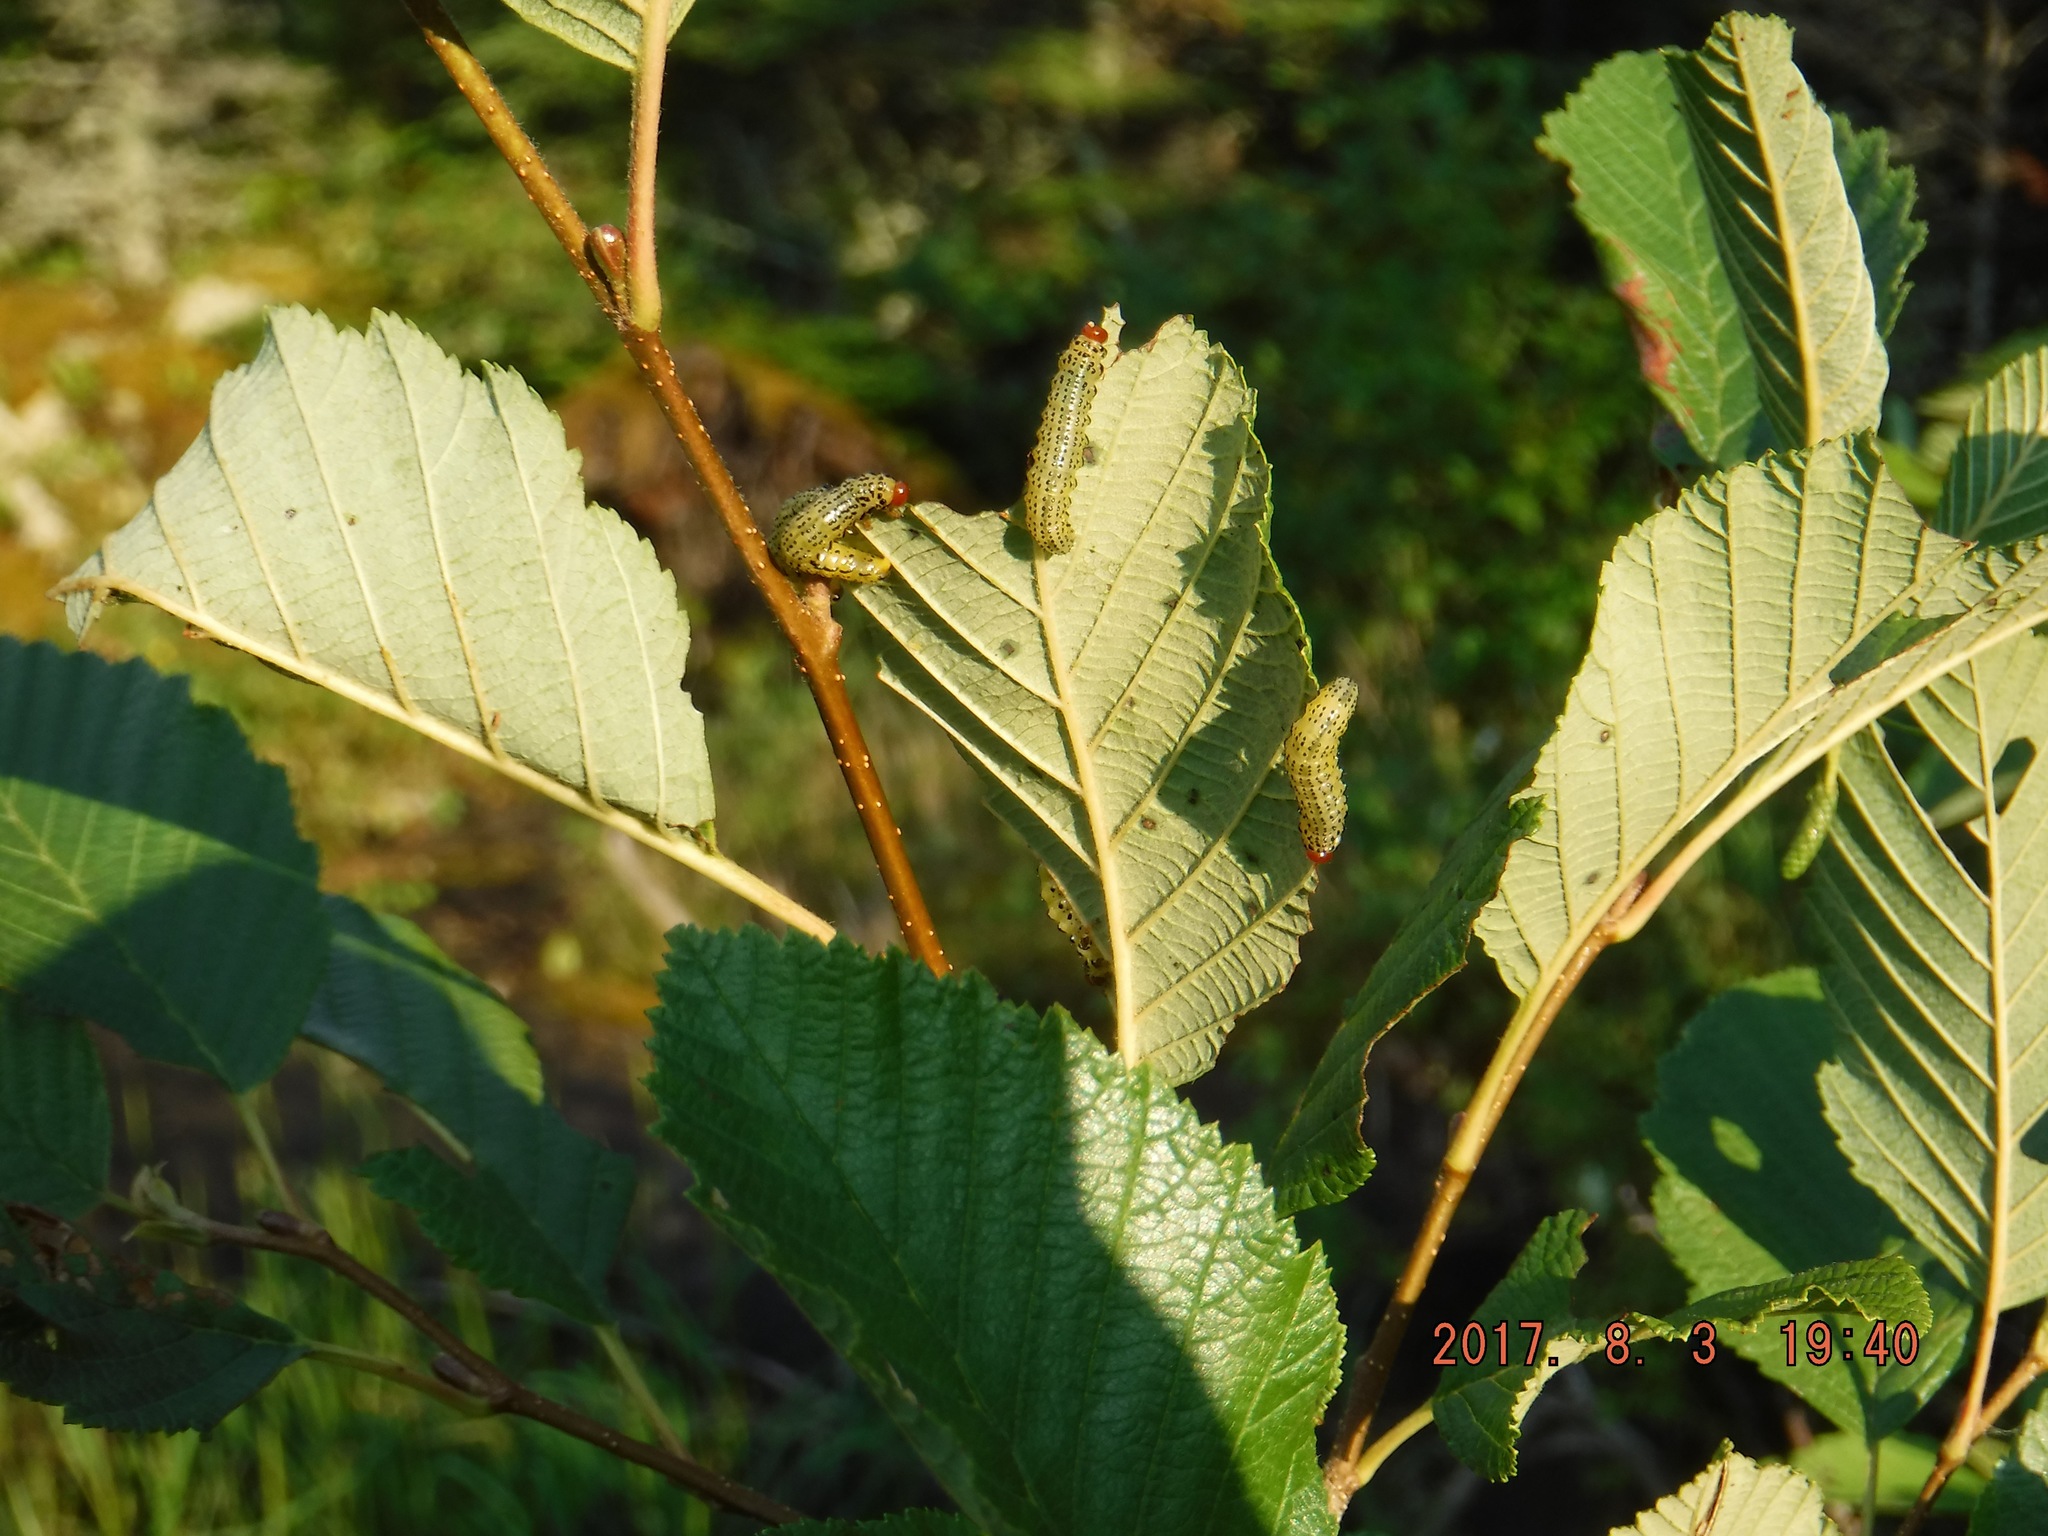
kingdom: Animalia
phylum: Arthropoda
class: Insecta
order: Hymenoptera
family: Argidae
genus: Arge
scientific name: Arge pectoralis
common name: Birch sawfly
